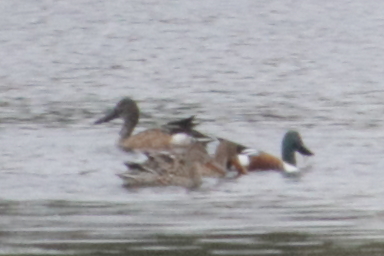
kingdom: Animalia
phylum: Chordata
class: Aves
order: Anseriformes
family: Anatidae
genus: Spatula
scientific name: Spatula clypeata
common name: Northern shoveler
